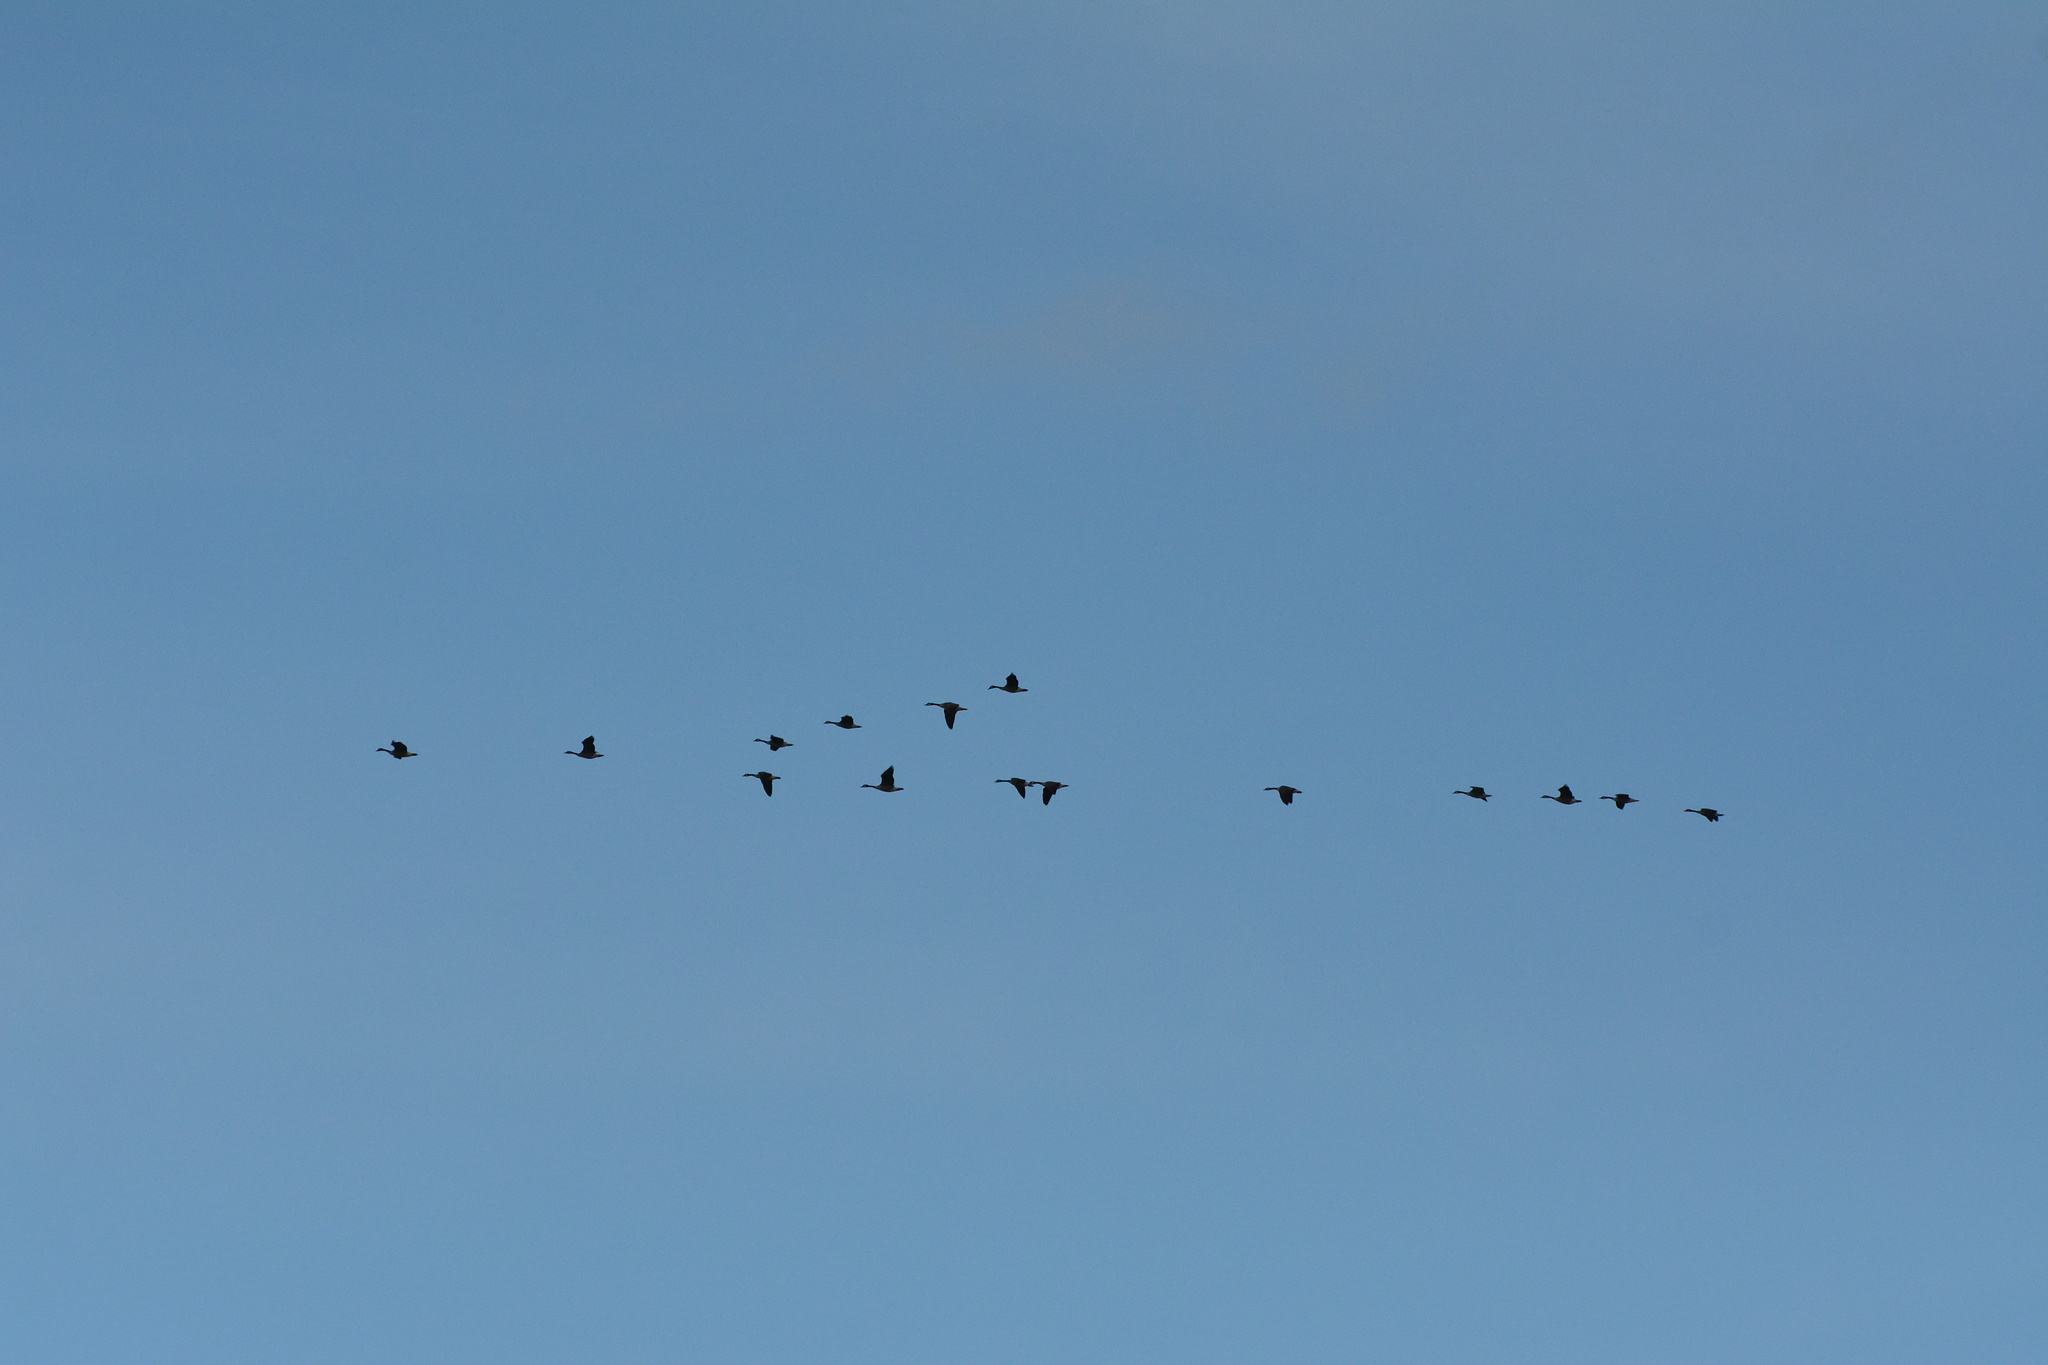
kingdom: Animalia
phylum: Chordata
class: Aves
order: Anseriformes
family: Anatidae
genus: Branta
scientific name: Branta canadensis
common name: Canada goose
